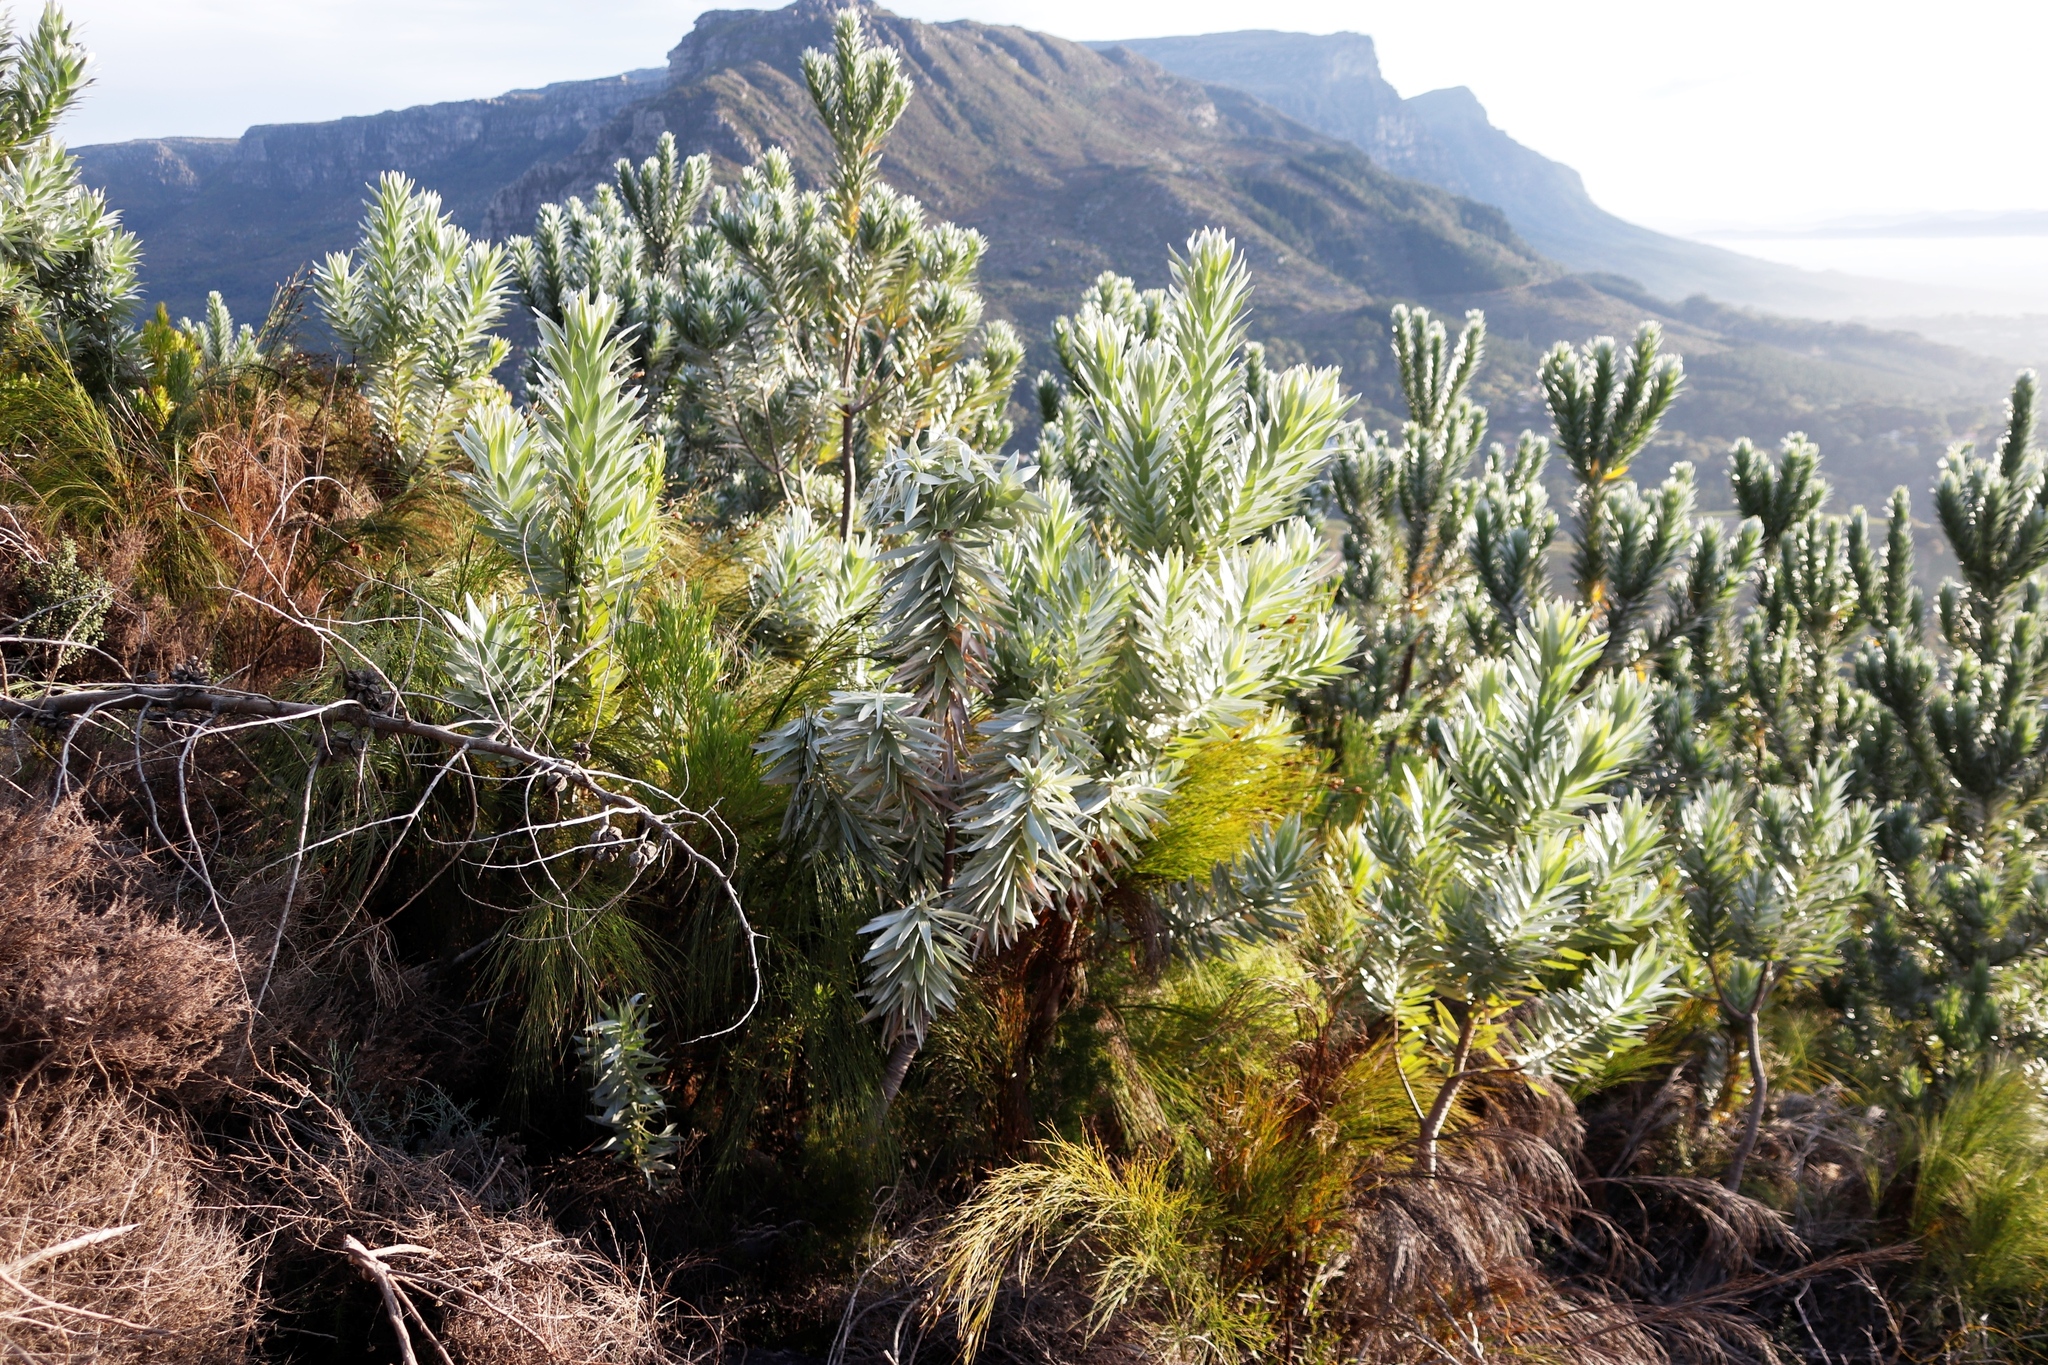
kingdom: Plantae
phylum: Tracheophyta
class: Magnoliopsida
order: Proteales
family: Proteaceae
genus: Leucadendron
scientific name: Leucadendron argenteum
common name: Cape silver tree
